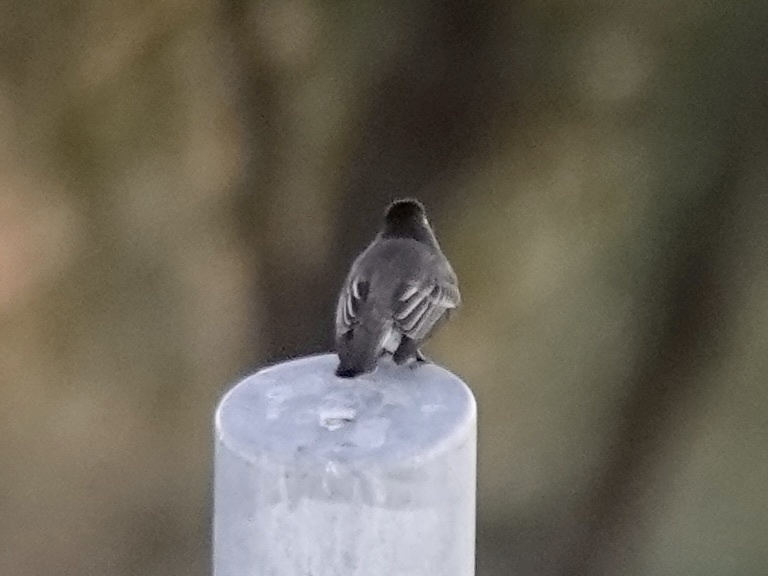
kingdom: Animalia
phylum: Chordata
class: Aves
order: Passeriformes
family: Tyrannidae
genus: Sayornis
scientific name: Sayornis nigricans
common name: Black phoebe
